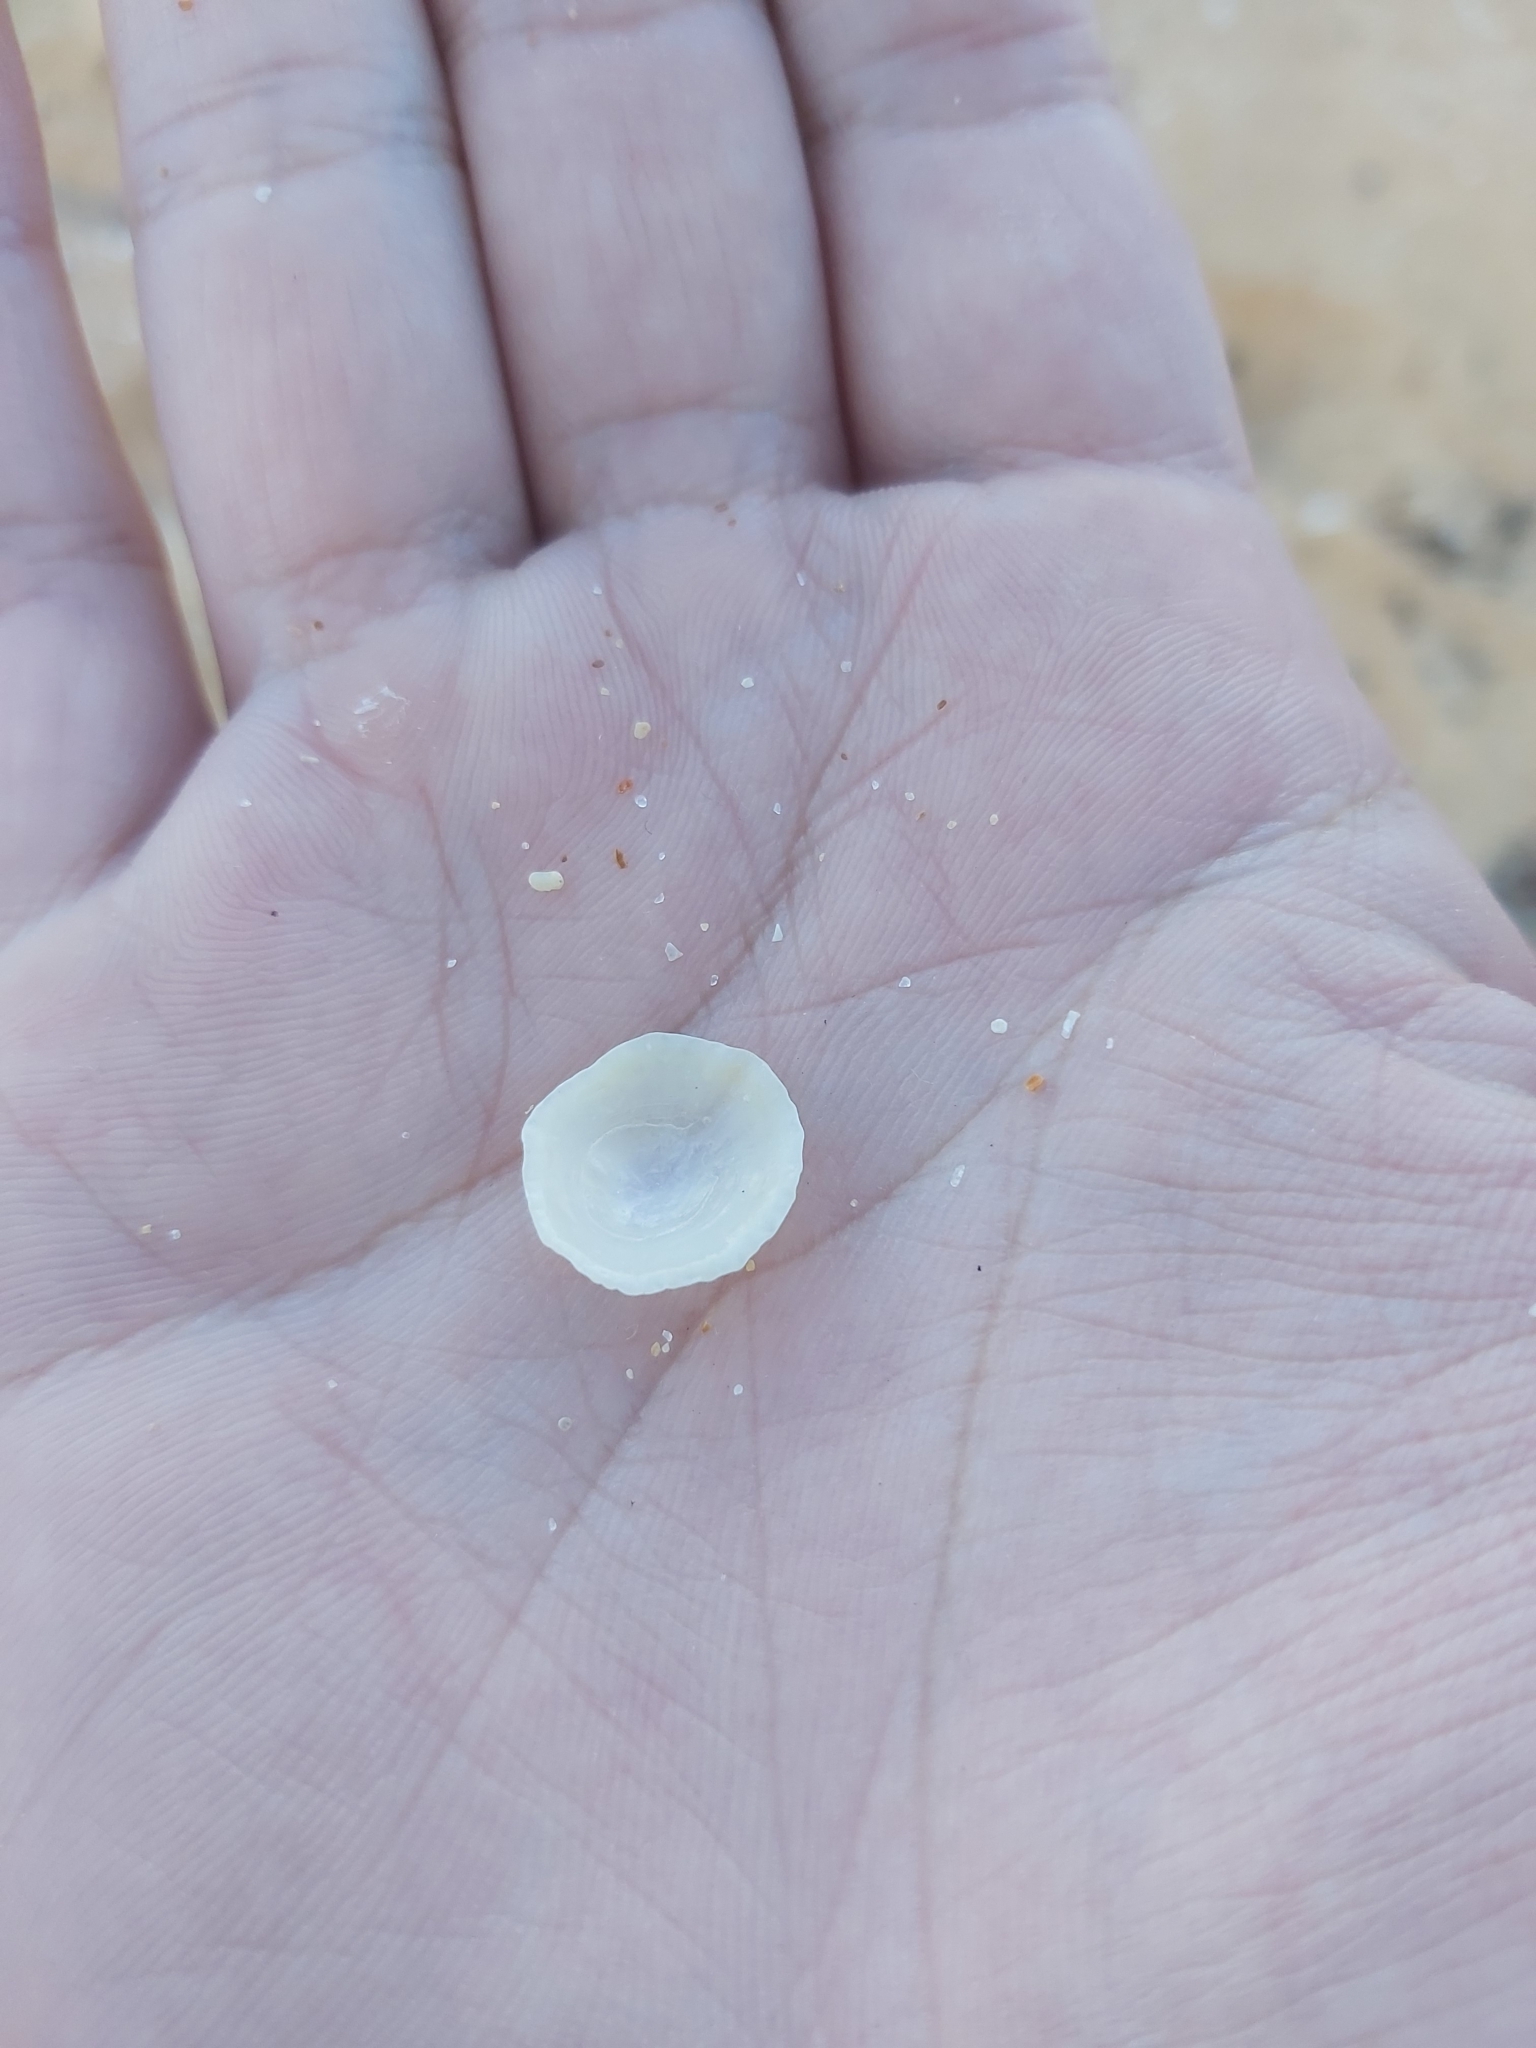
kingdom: Animalia
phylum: Mollusca
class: Gastropoda
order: Ellobiida
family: Trimusculidae
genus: Trimusculus
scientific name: Trimusculus conicus
